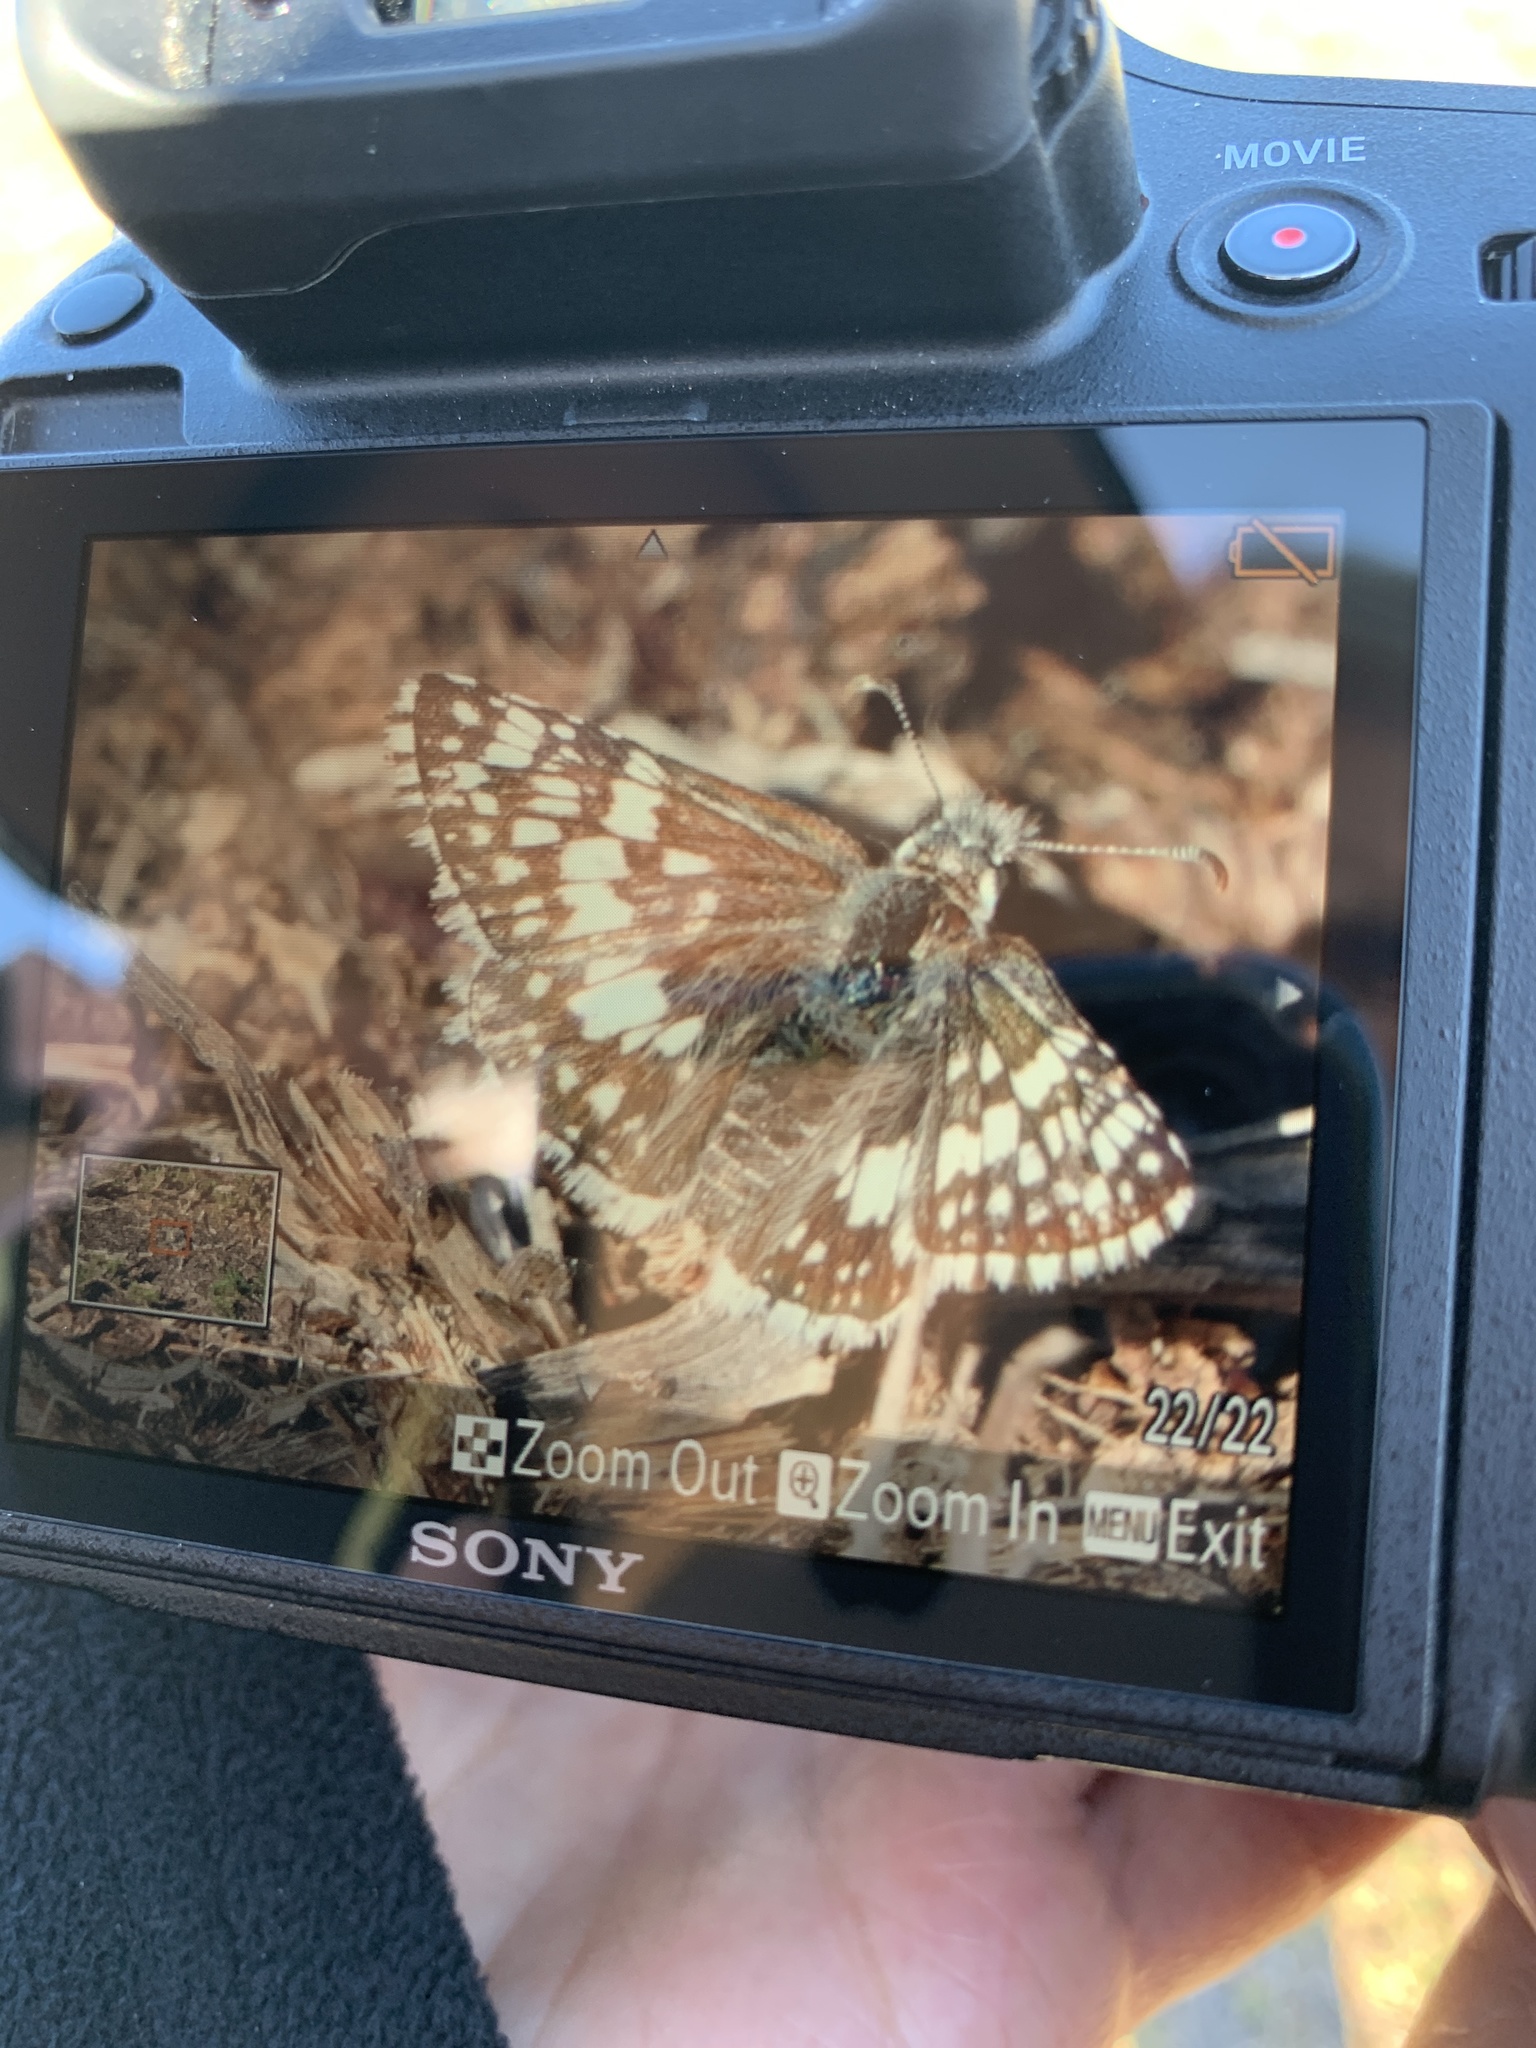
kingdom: Animalia
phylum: Arthropoda
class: Insecta
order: Lepidoptera
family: Hesperiidae
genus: Burnsius
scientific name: Burnsius albezens
